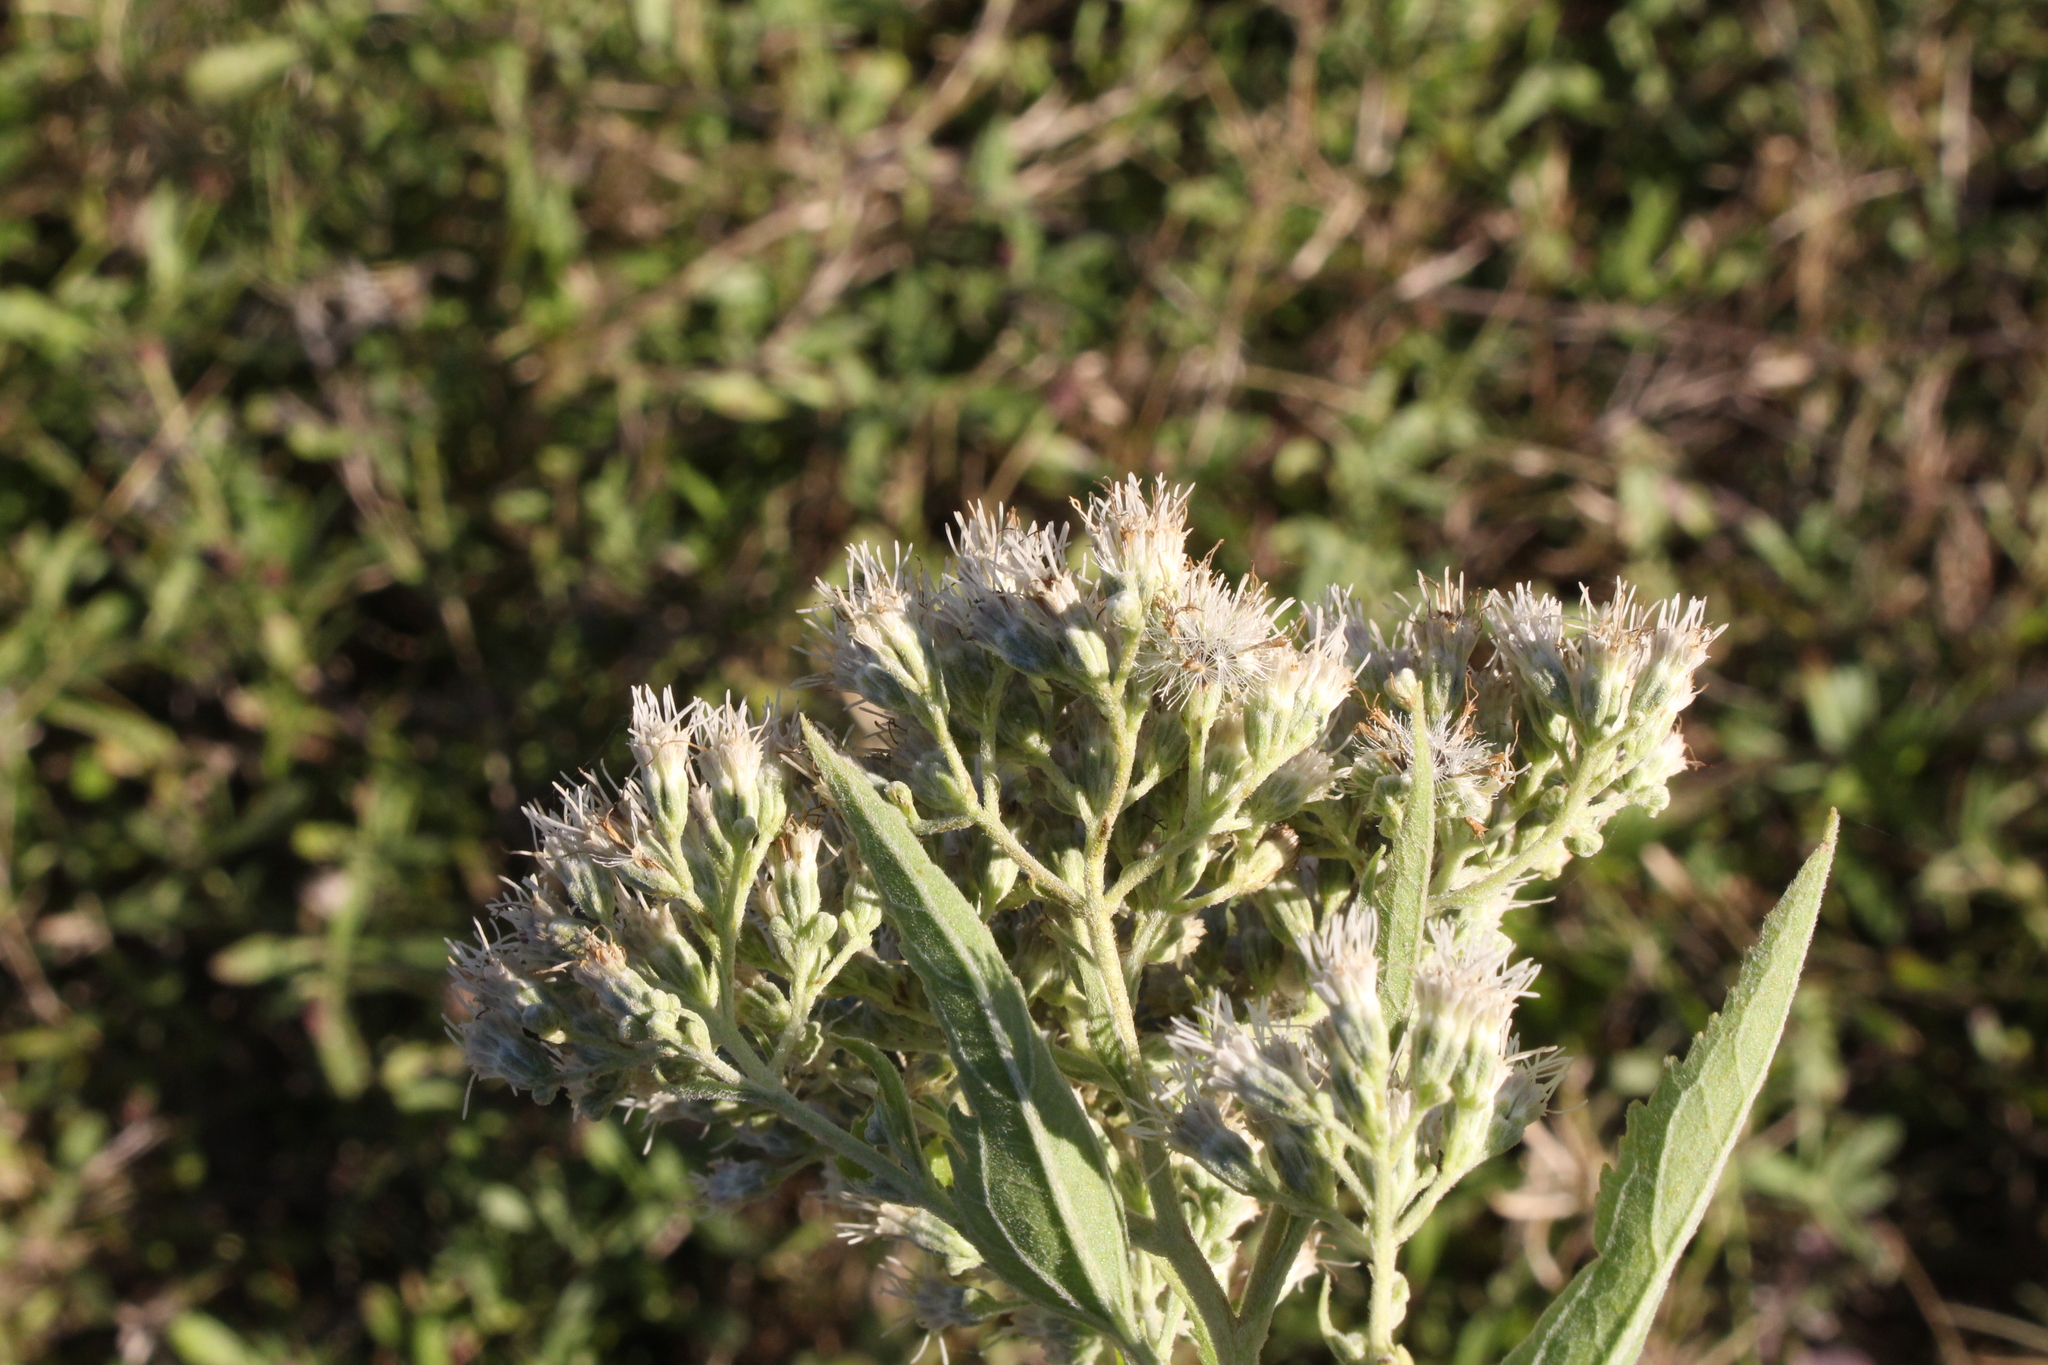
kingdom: Plantae
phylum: Tracheophyta
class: Magnoliopsida
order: Asterales
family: Asteraceae
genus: Eupatorium
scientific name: Eupatorium serotinum
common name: Late boneset
